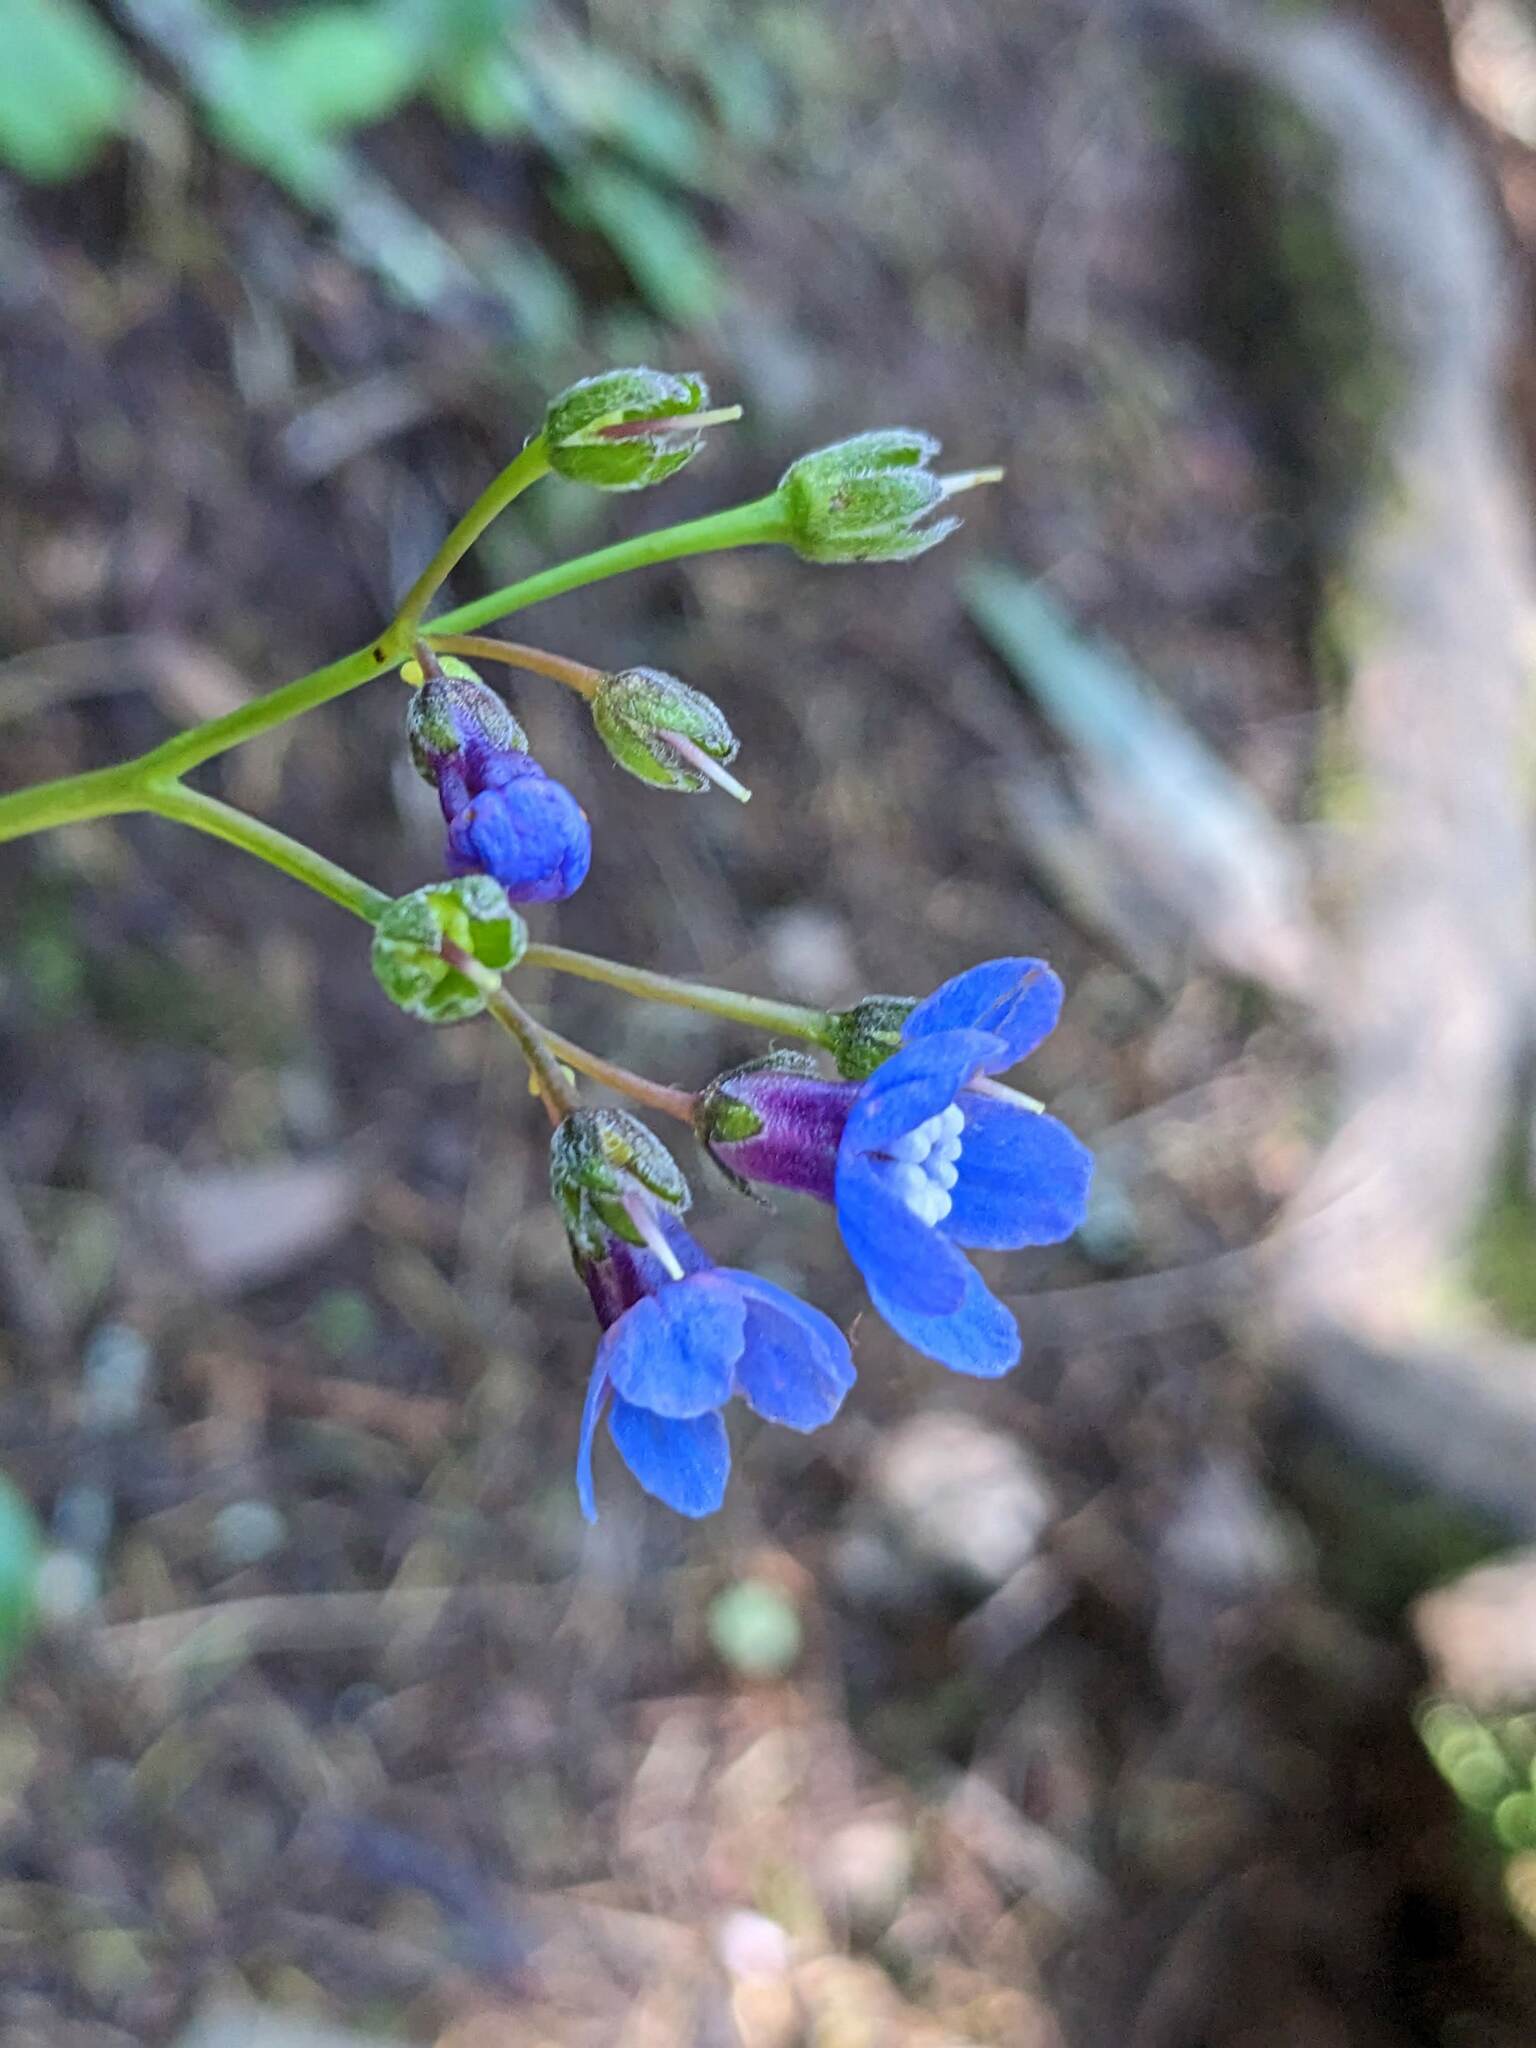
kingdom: Plantae
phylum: Tracheophyta
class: Magnoliopsida
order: Boraginales
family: Boraginaceae
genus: Adelinia
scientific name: Adelinia grande
